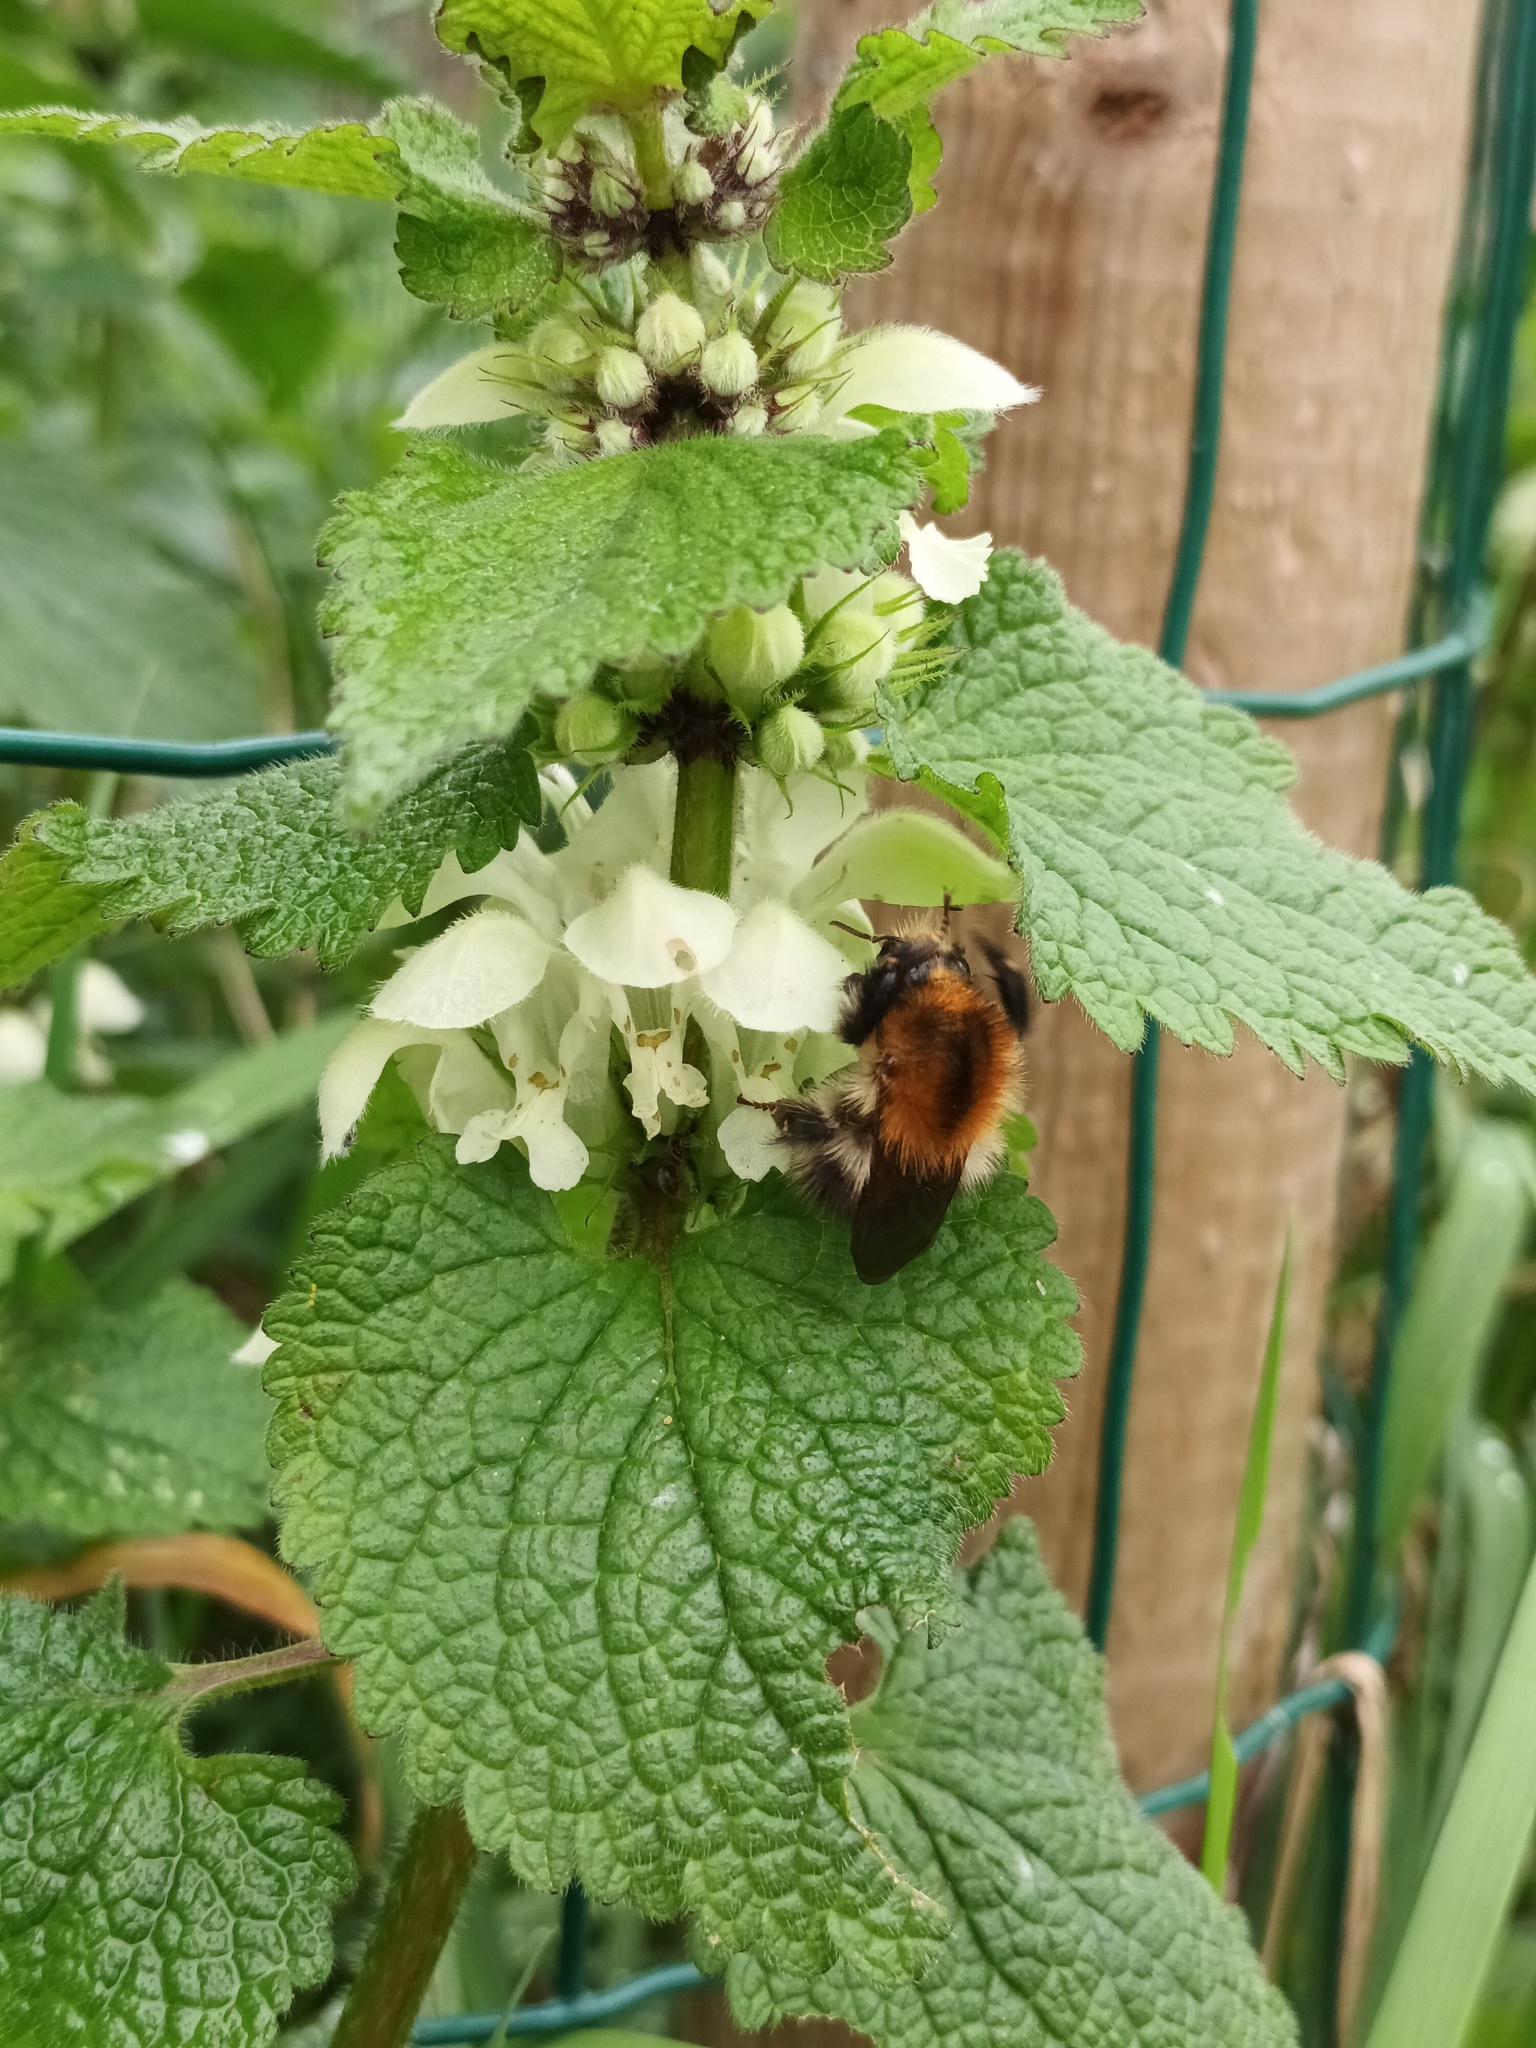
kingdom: Animalia
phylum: Arthropoda
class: Insecta
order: Hymenoptera
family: Apidae
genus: Bombus
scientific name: Bombus pascuorum
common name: Common carder bee
